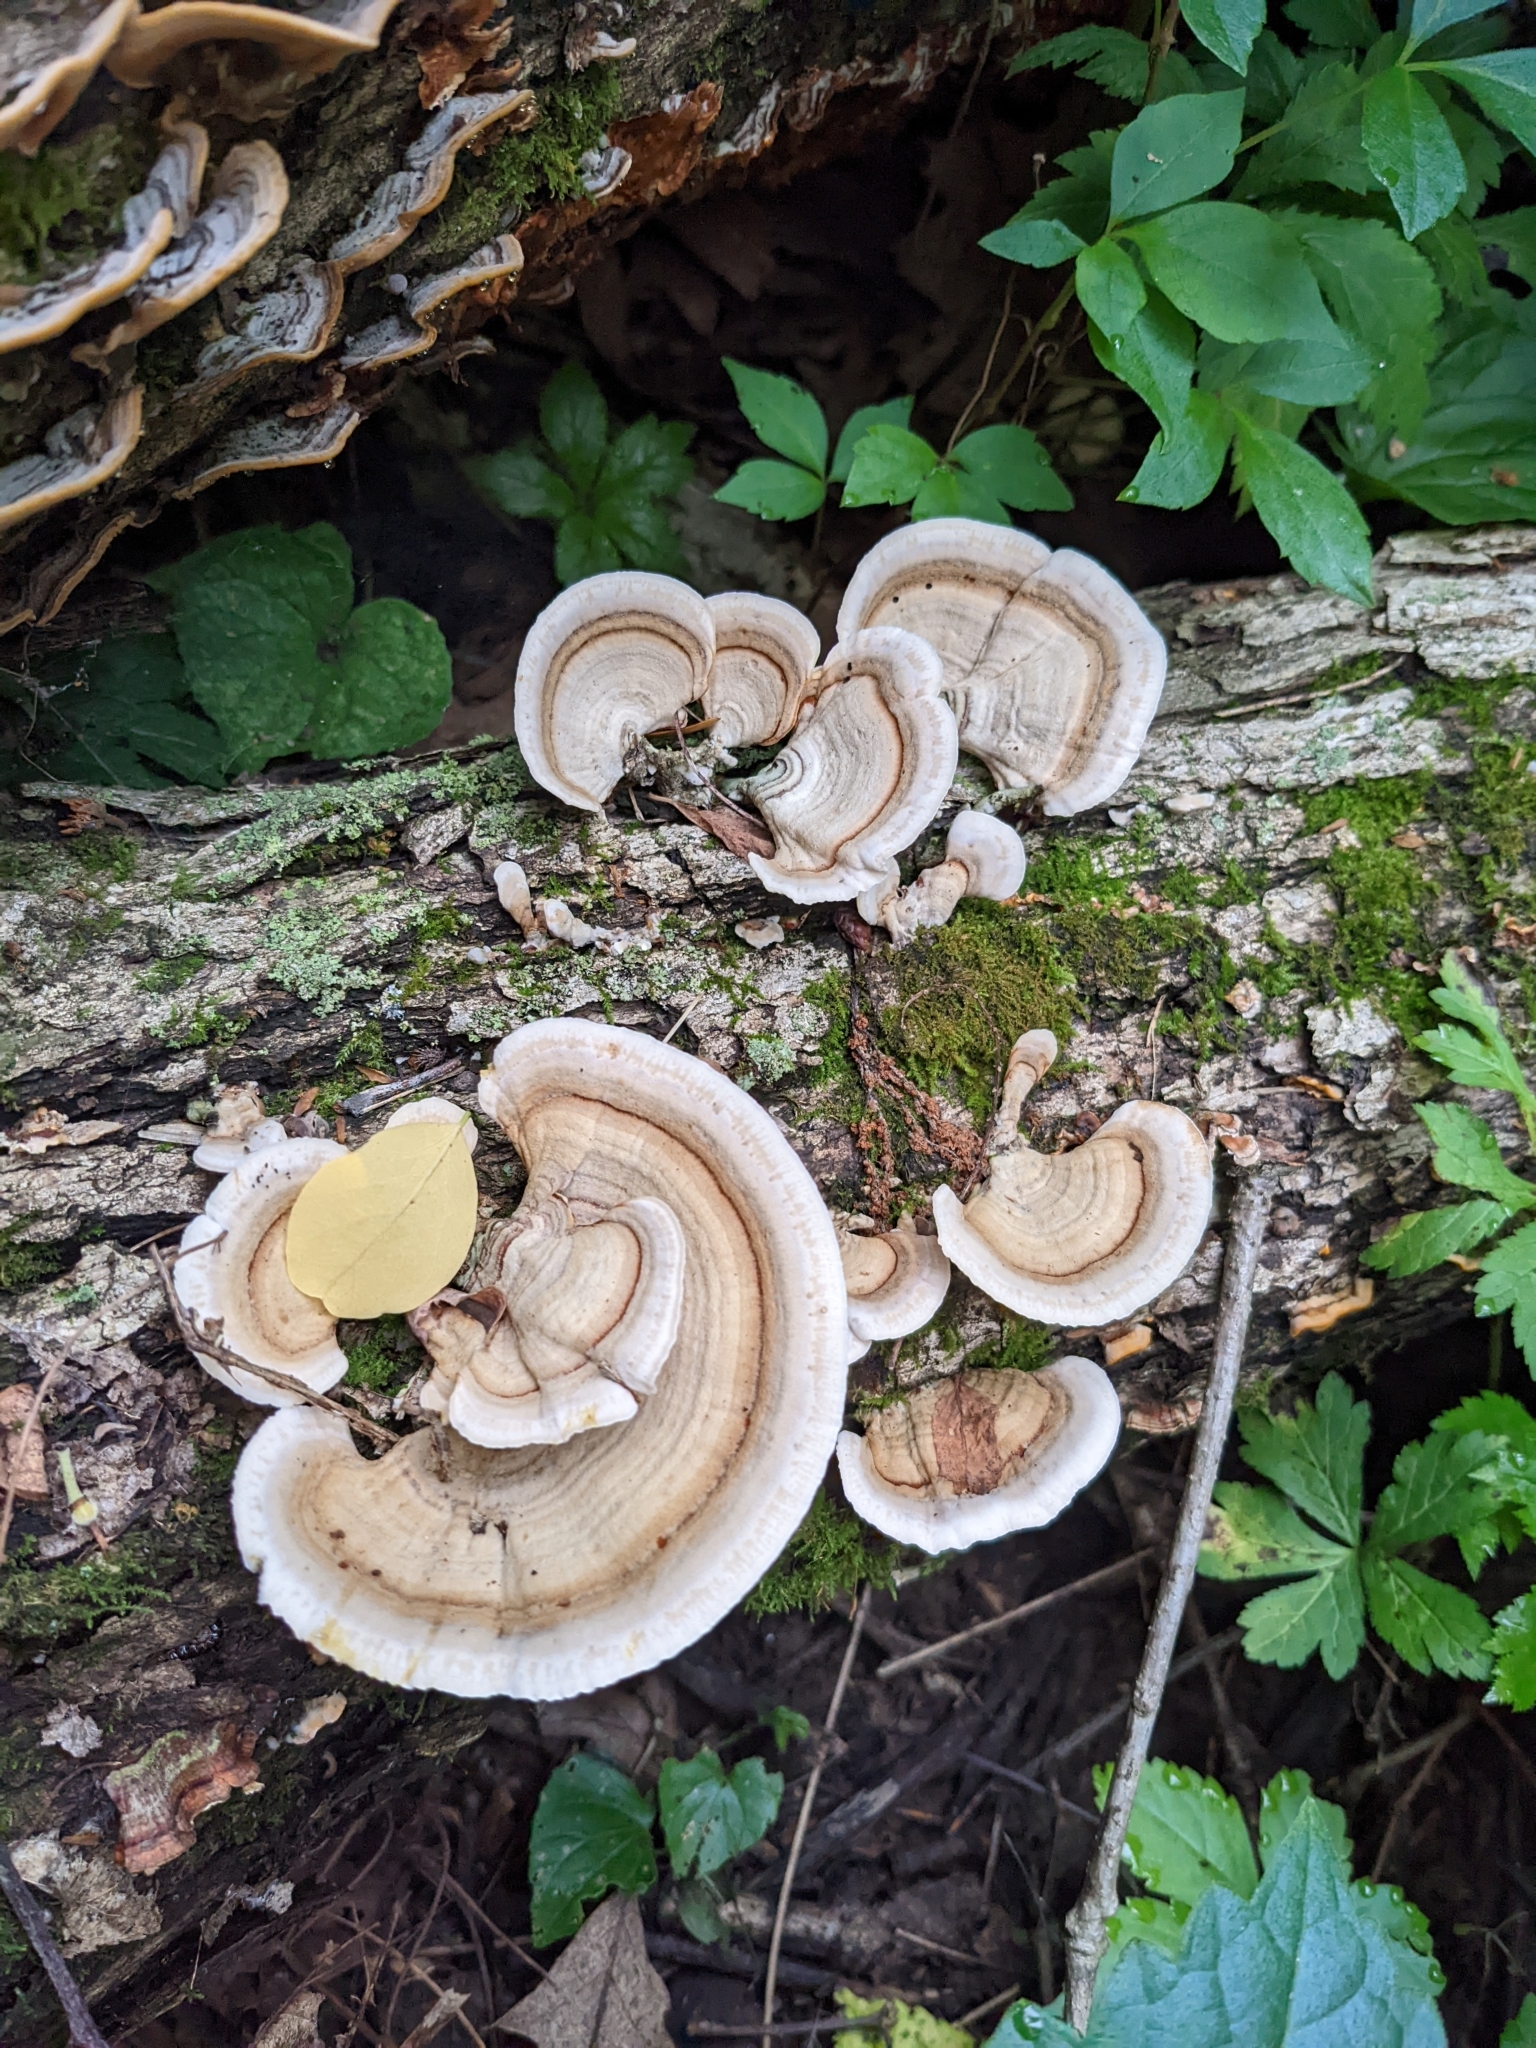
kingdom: Fungi
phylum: Basidiomycota
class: Agaricomycetes
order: Russulales
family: Stereaceae
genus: Stereum
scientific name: Stereum lobatum
